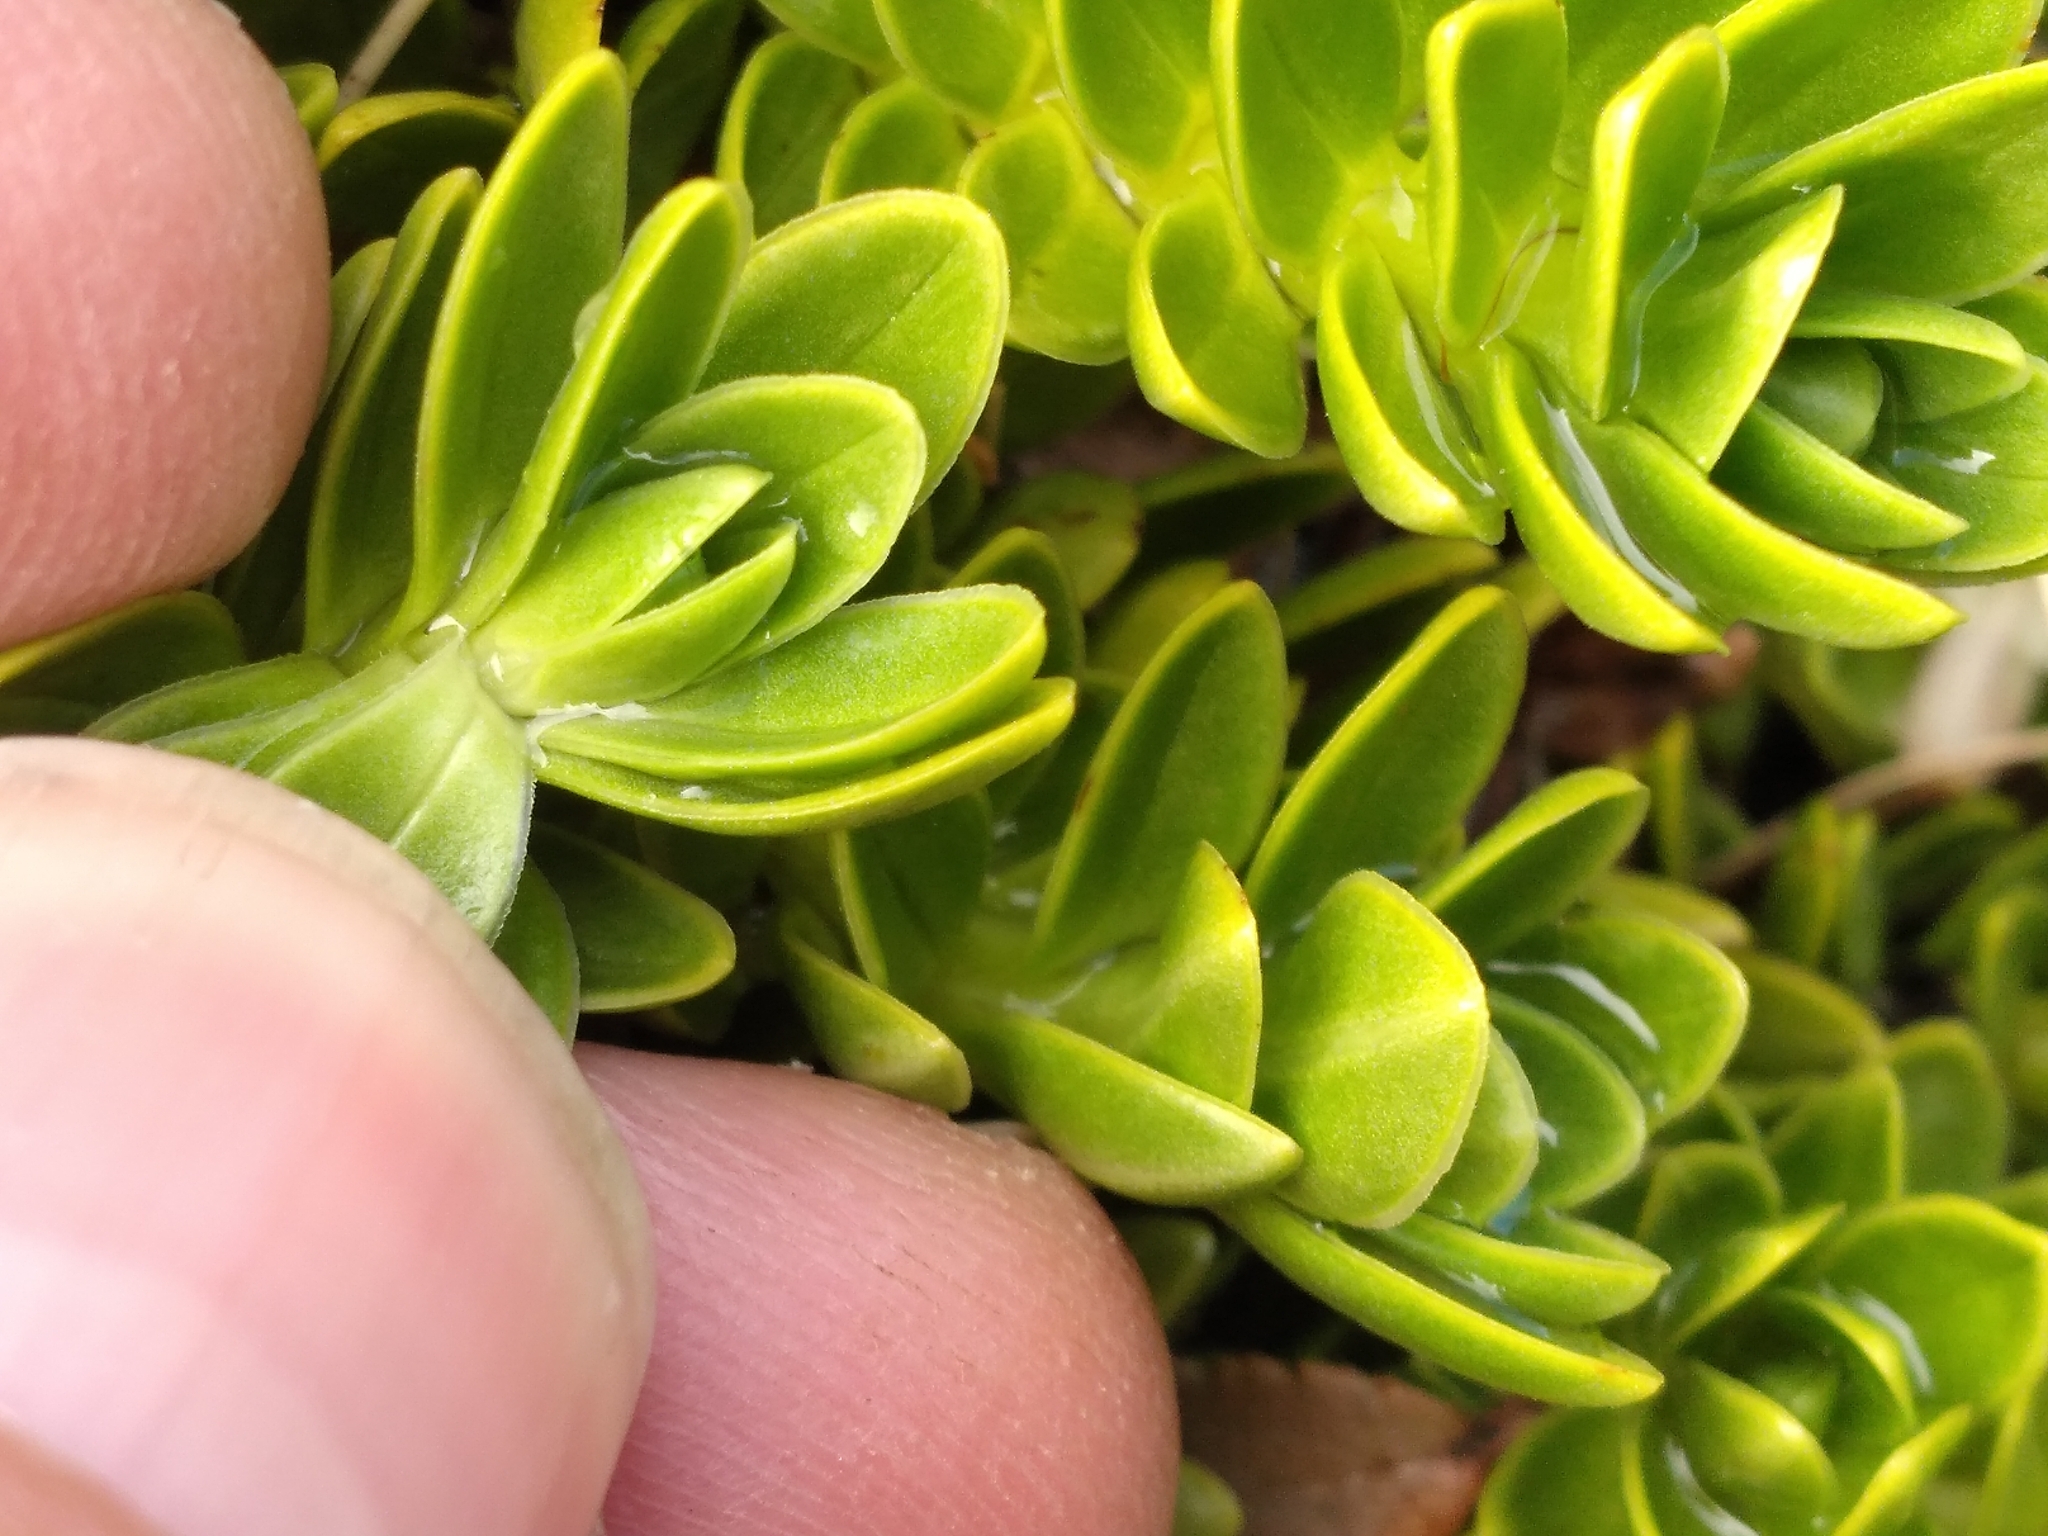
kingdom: Plantae
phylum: Tracheophyta
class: Magnoliopsida
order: Lamiales
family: Plantaginaceae
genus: Veronica
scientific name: Veronica macrocalyx
